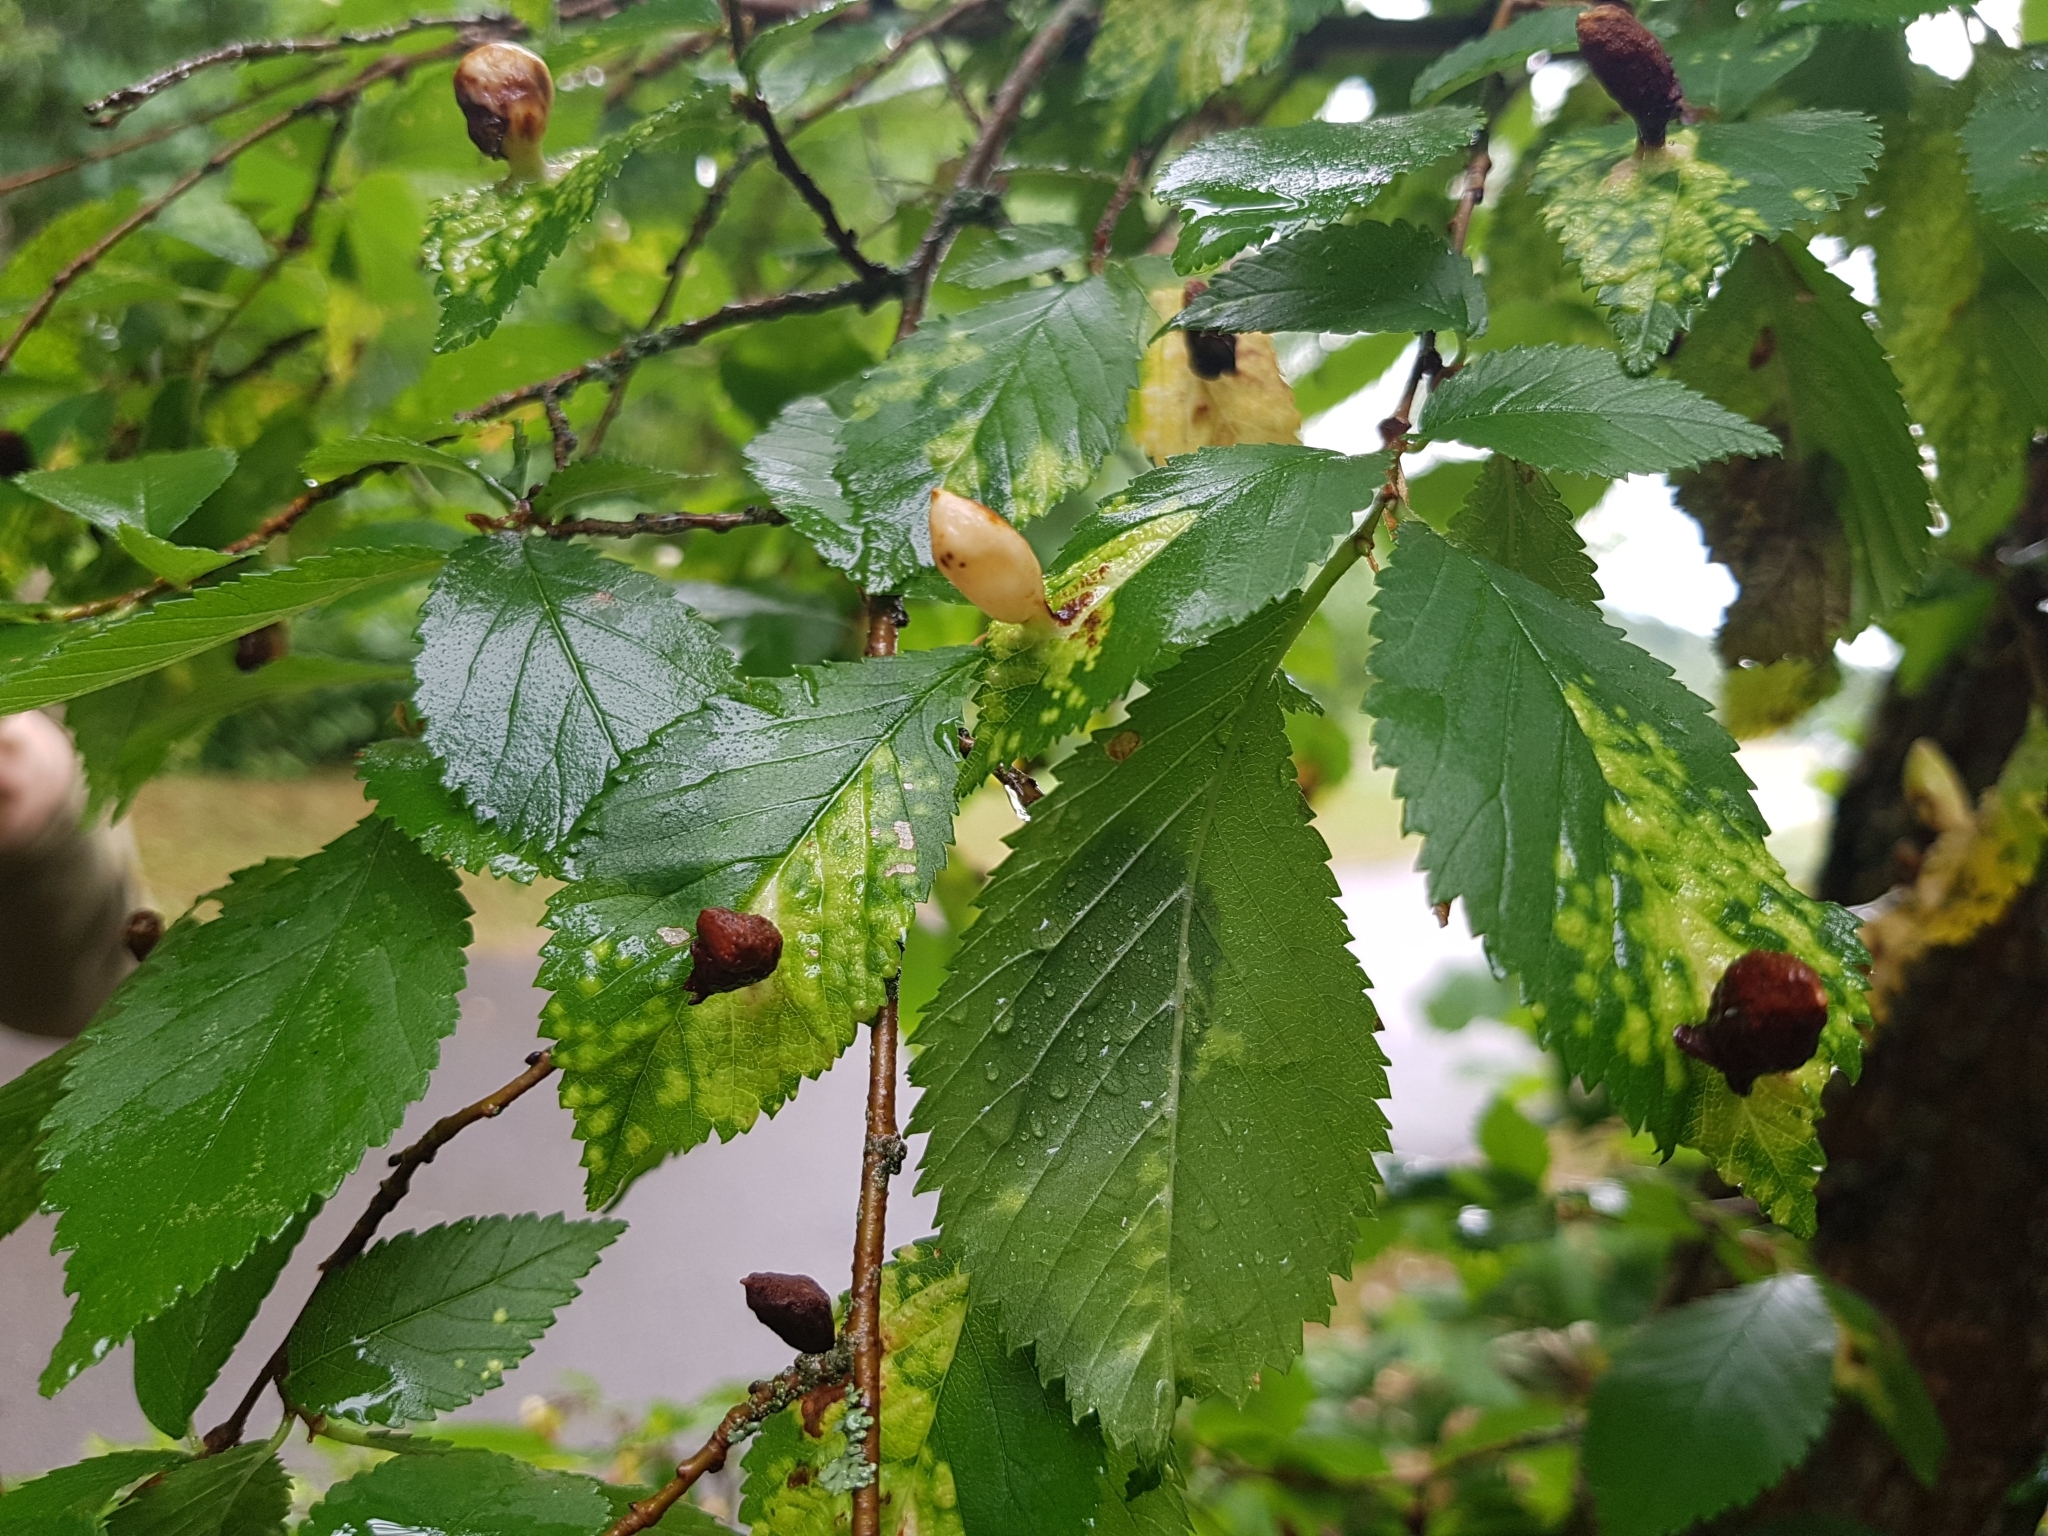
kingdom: Animalia
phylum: Arthropoda
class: Insecta
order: Hemiptera
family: Aphididae
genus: Tetraneura
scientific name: Tetraneura ulmi
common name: Aphid
